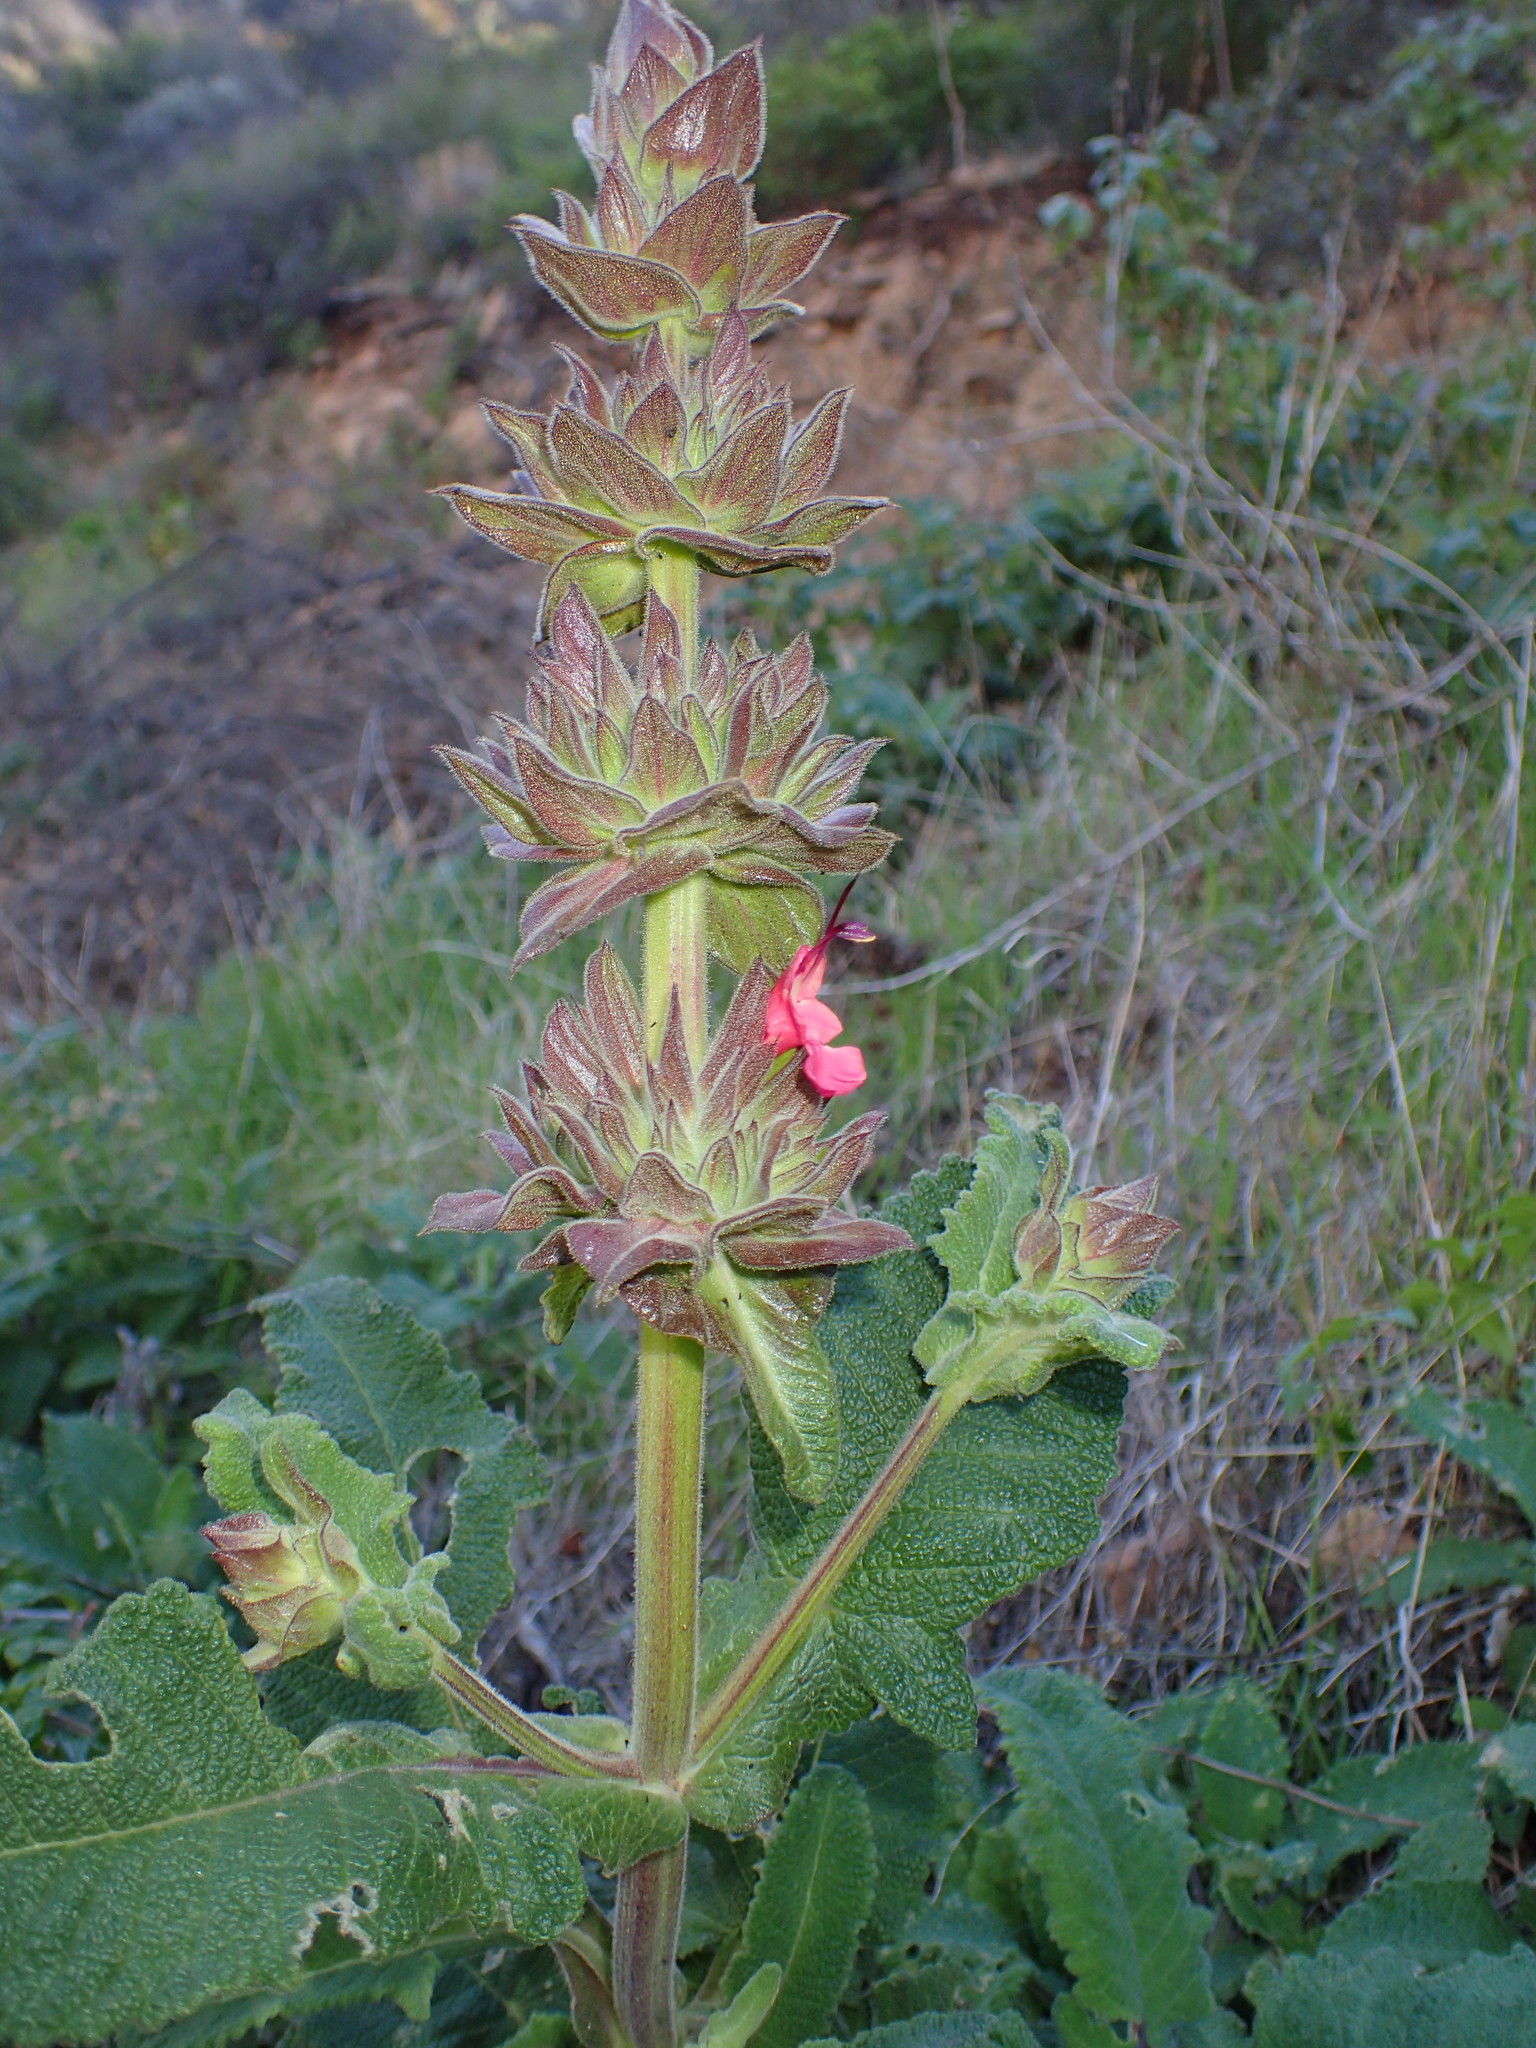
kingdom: Plantae
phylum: Tracheophyta
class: Magnoliopsida
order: Lamiales
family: Lamiaceae
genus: Salvia
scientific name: Salvia spathacea
